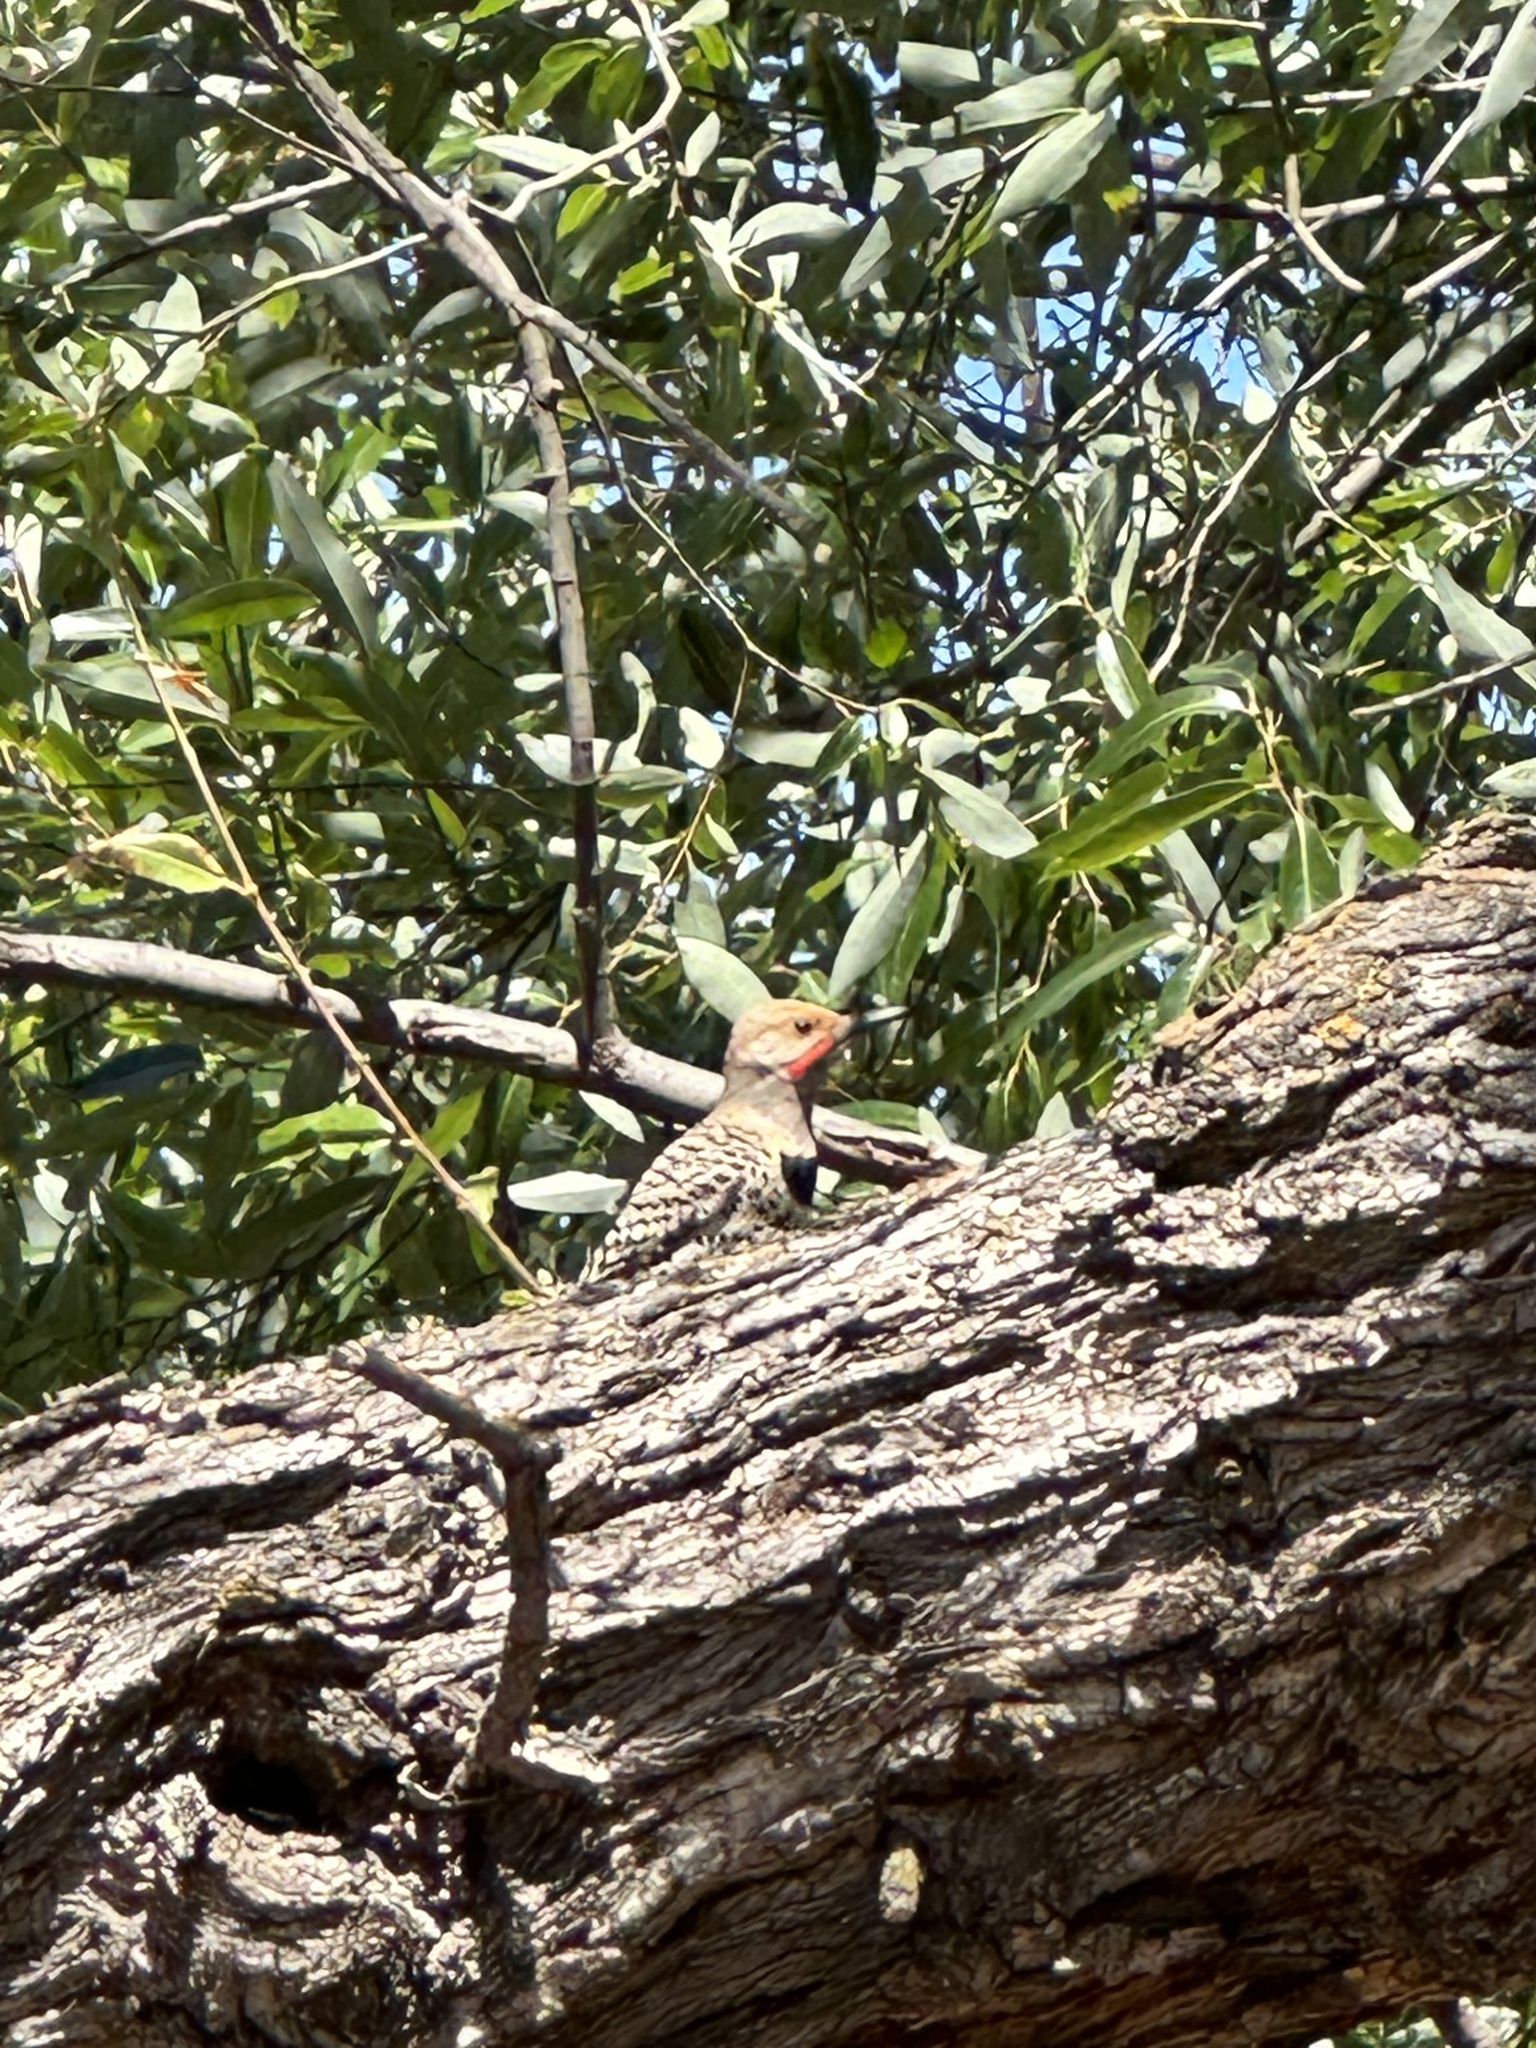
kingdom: Animalia
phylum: Chordata
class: Aves
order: Piciformes
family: Picidae
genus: Colaptes
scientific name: Colaptes auratus
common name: Northern flicker
